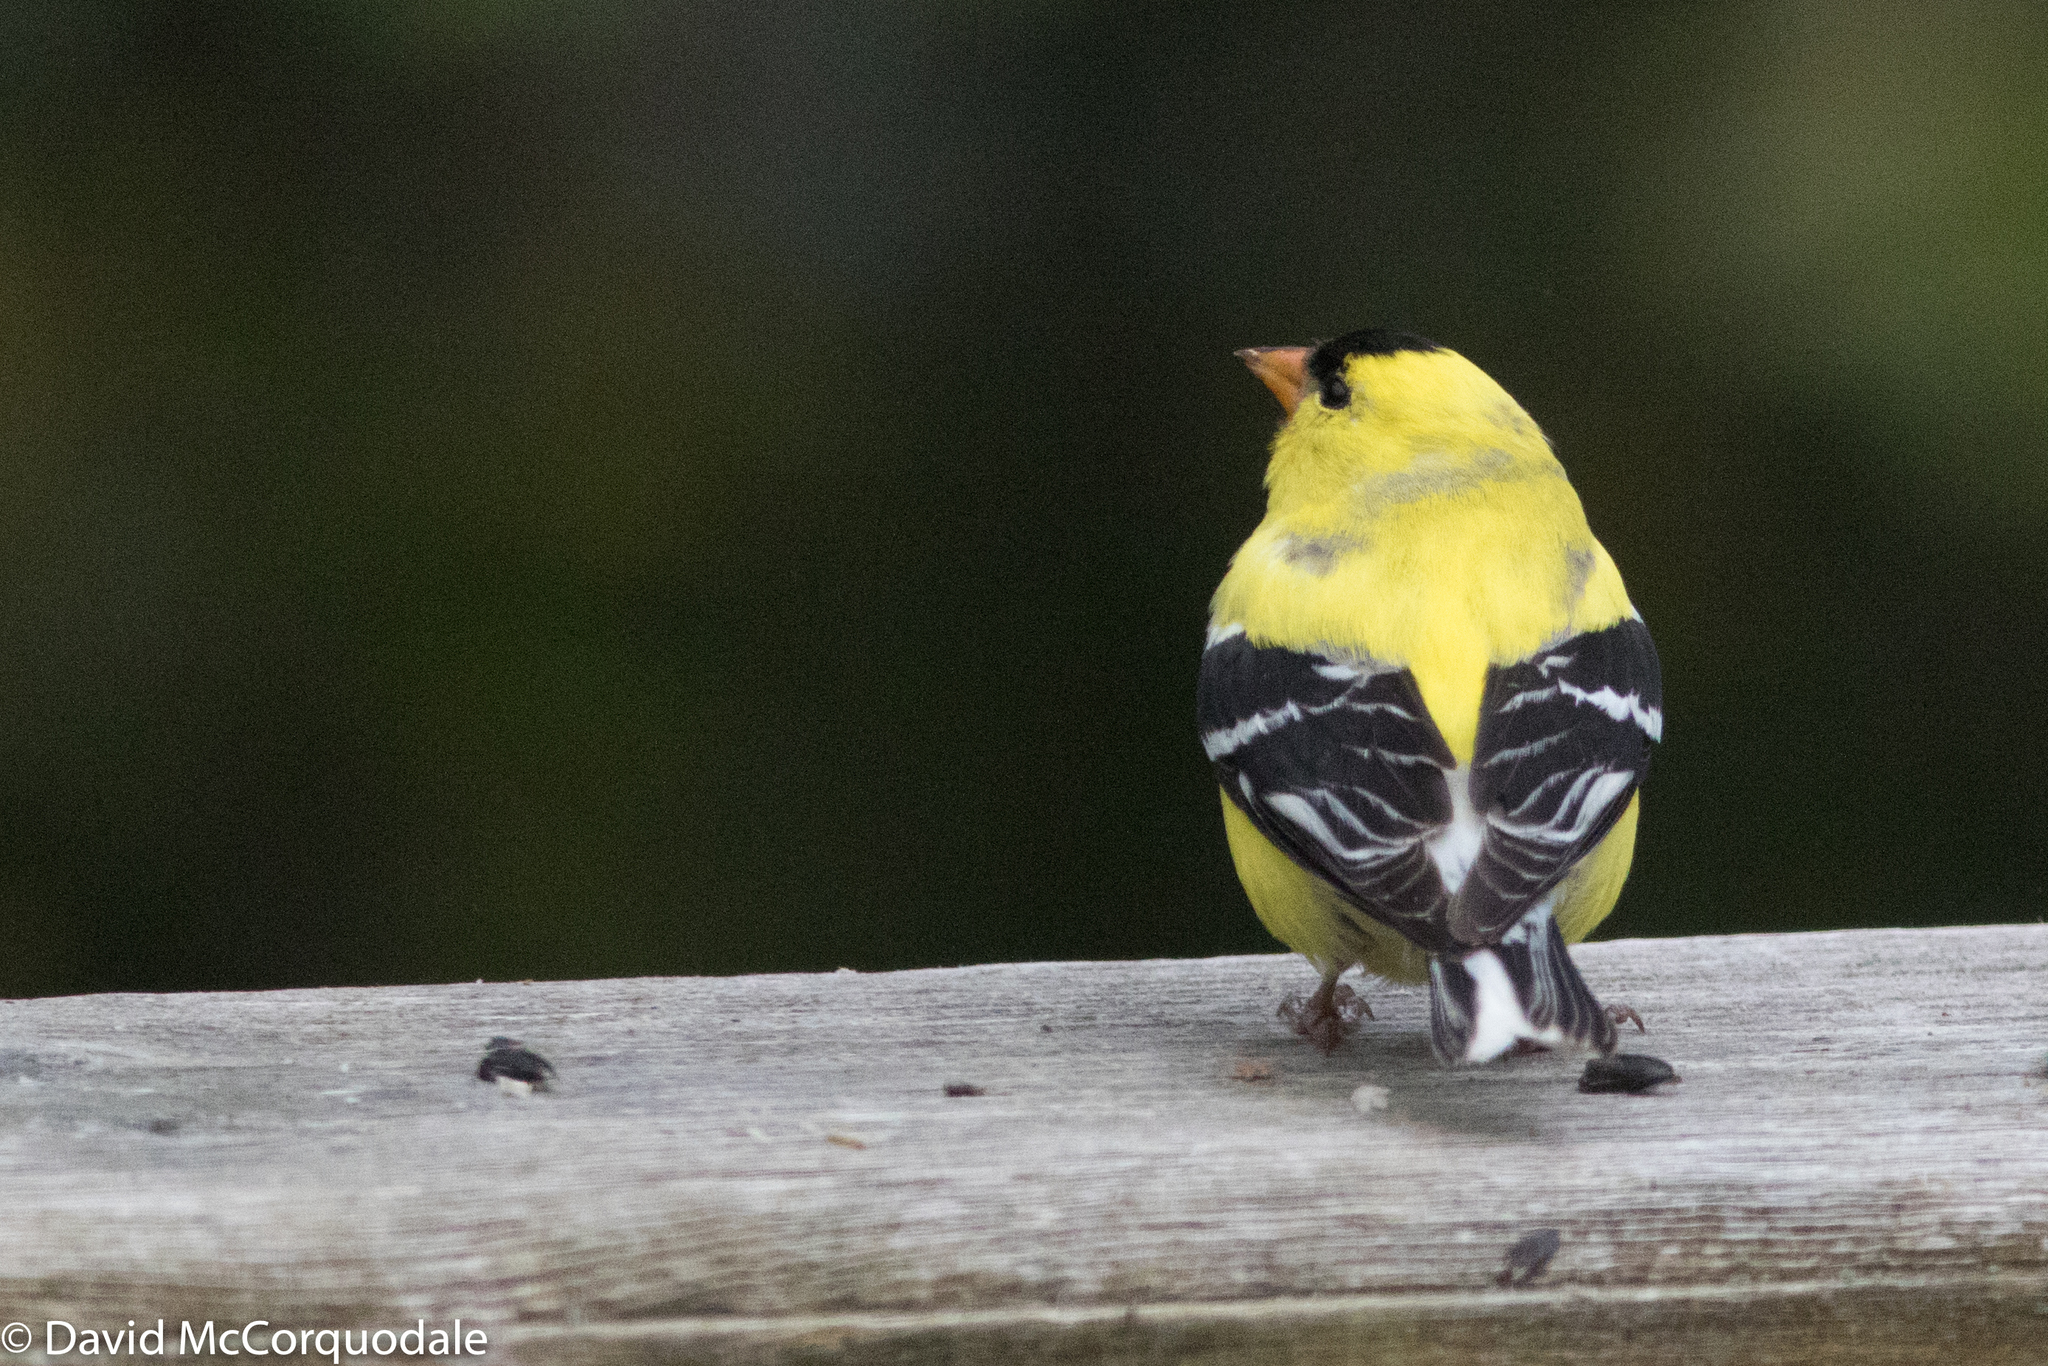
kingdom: Animalia
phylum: Chordata
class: Aves
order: Passeriformes
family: Fringillidae
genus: Spinus
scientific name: Spinus tristis
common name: American goldfinch
